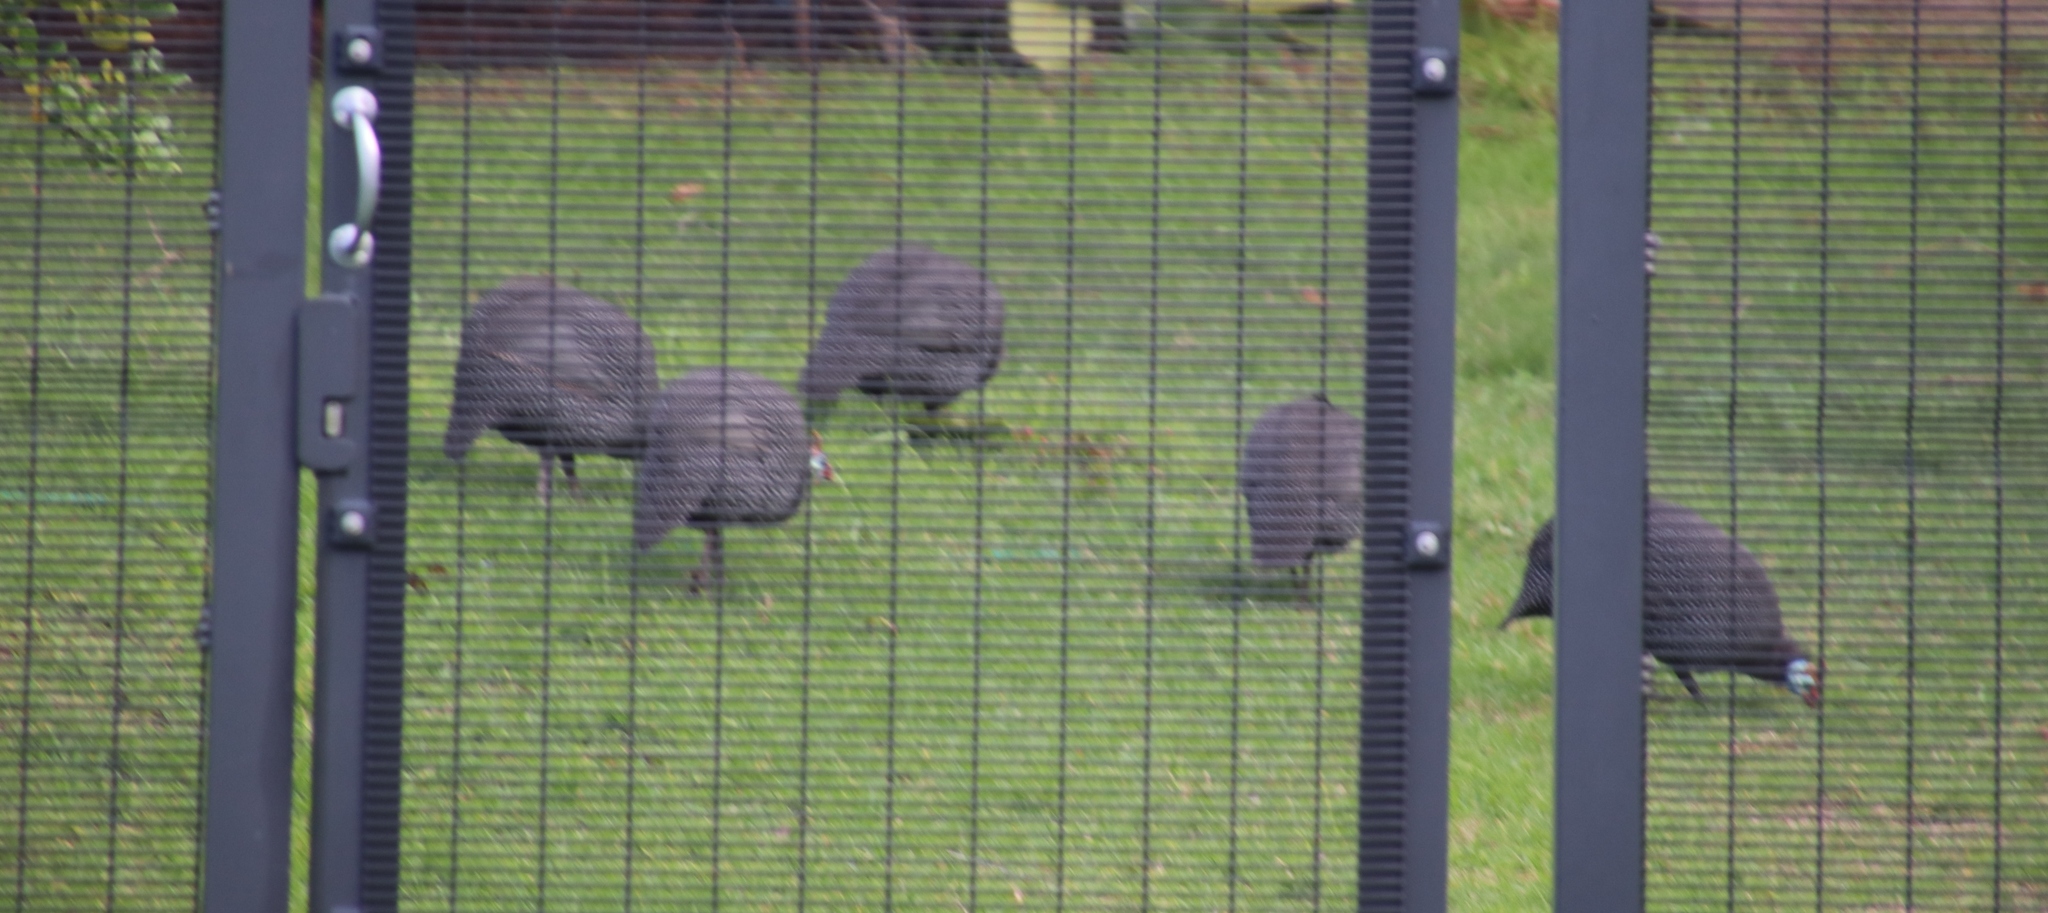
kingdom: Animalia
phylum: Chordata
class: Aves
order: Galliformes
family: Numididae
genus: Numida
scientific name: Numida meleagris
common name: Helmeted guineafowl
